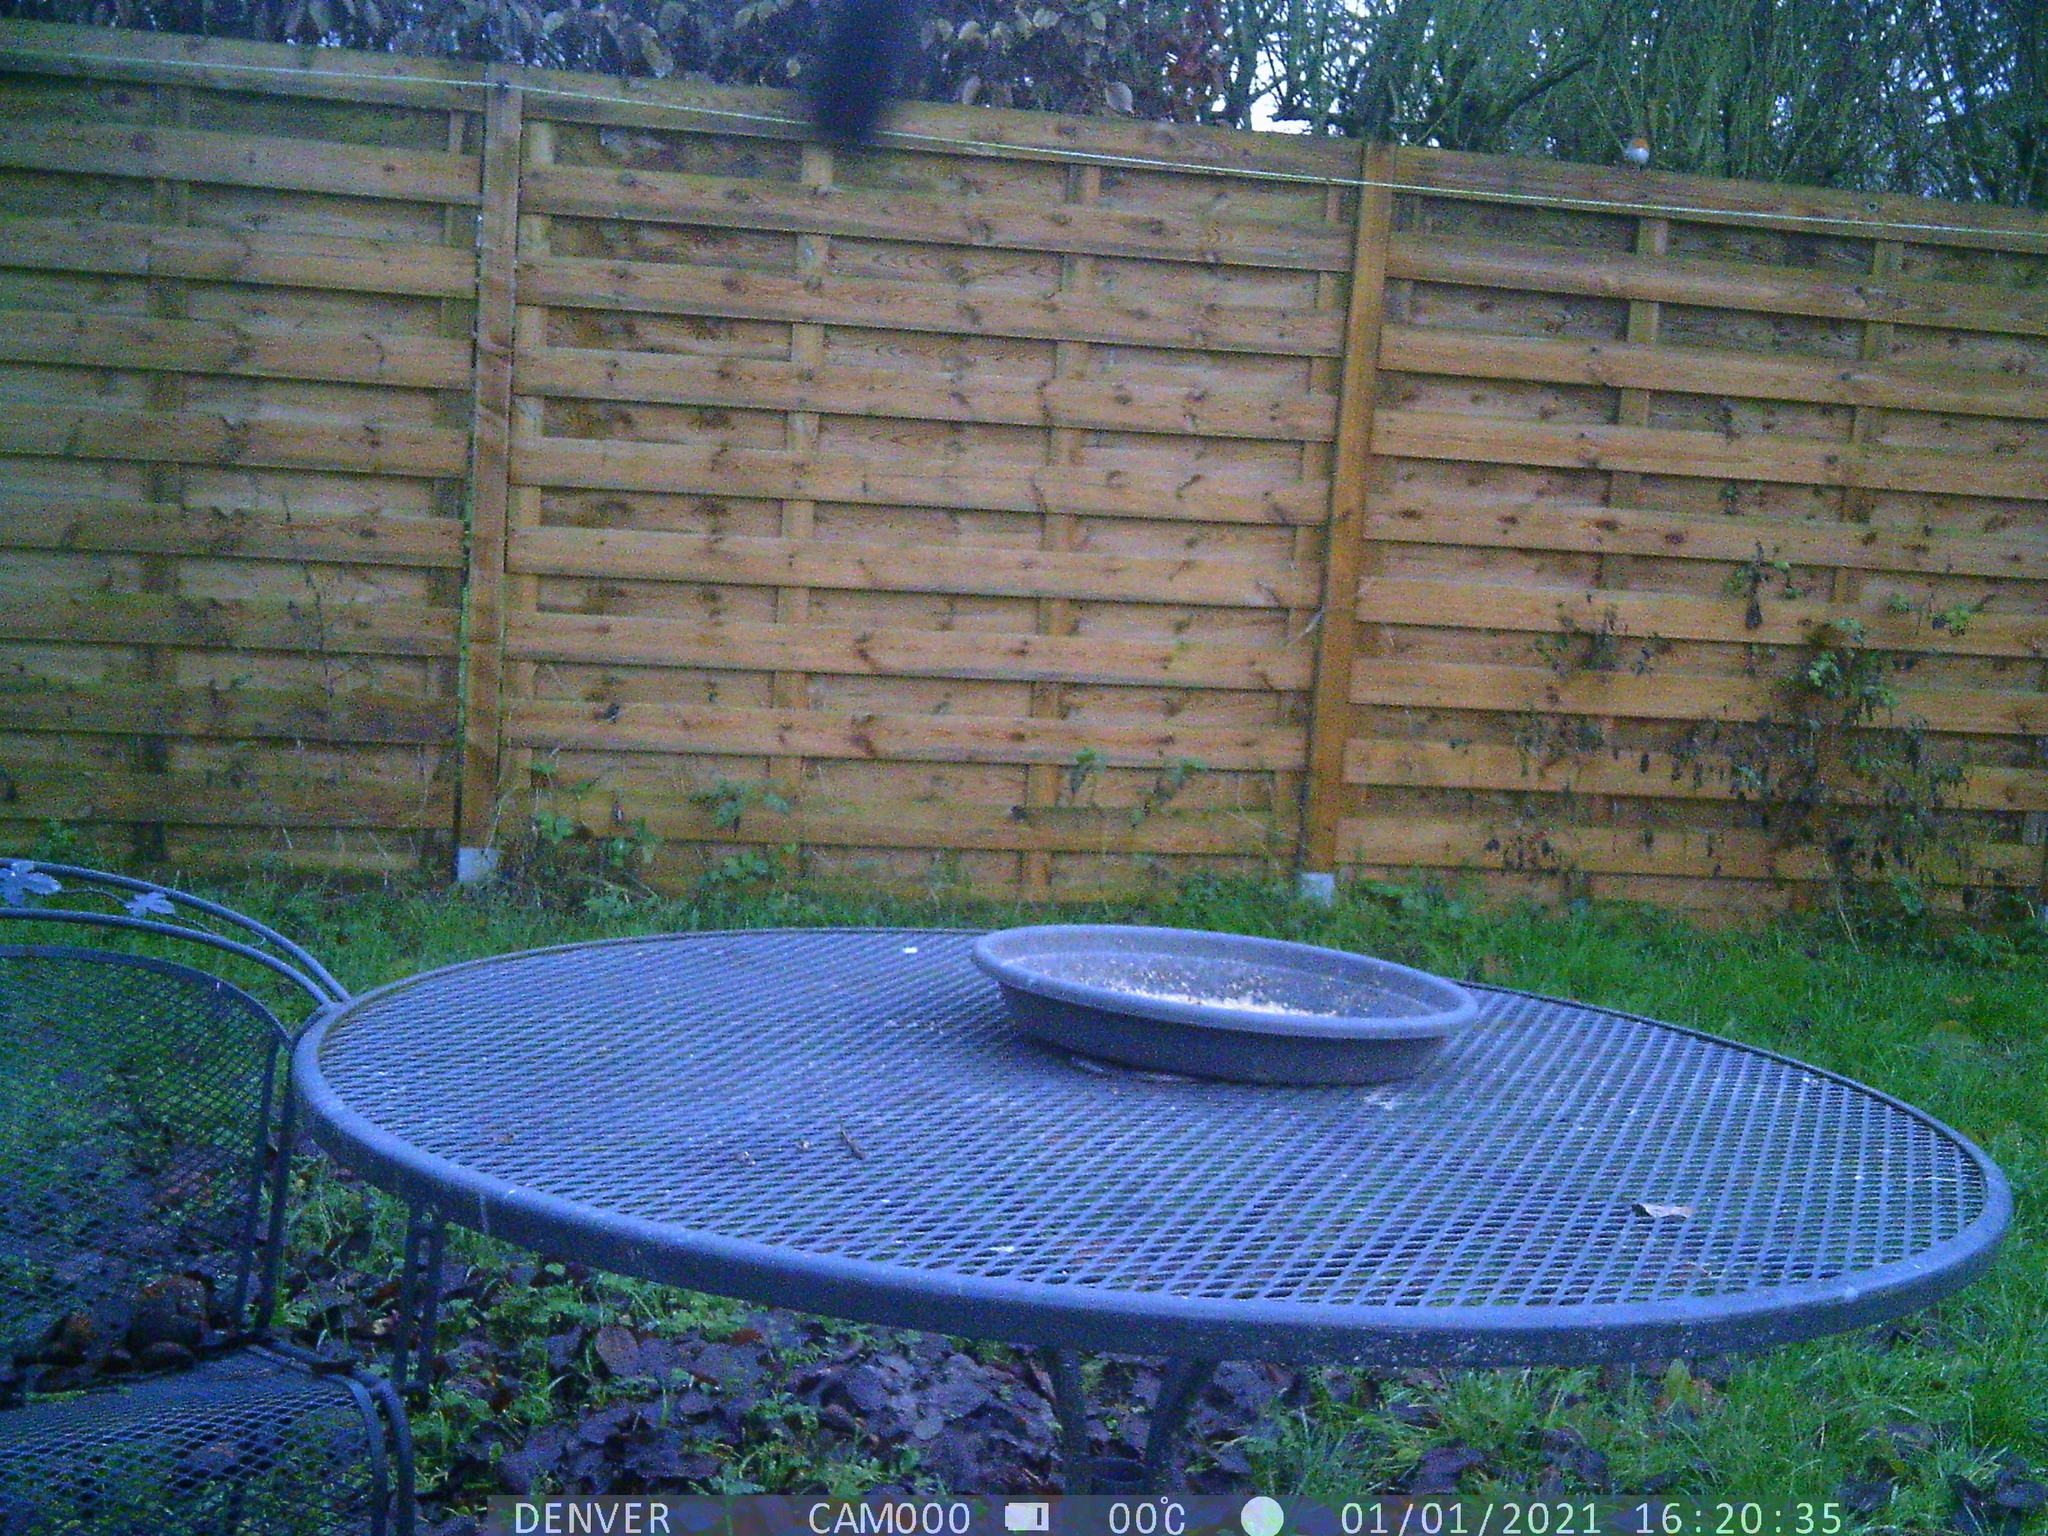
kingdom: Animalia
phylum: Chordata
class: Aves
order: Passeriformes
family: Muscicapidae
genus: Erithacus
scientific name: Erithacus rubecula
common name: European robin
